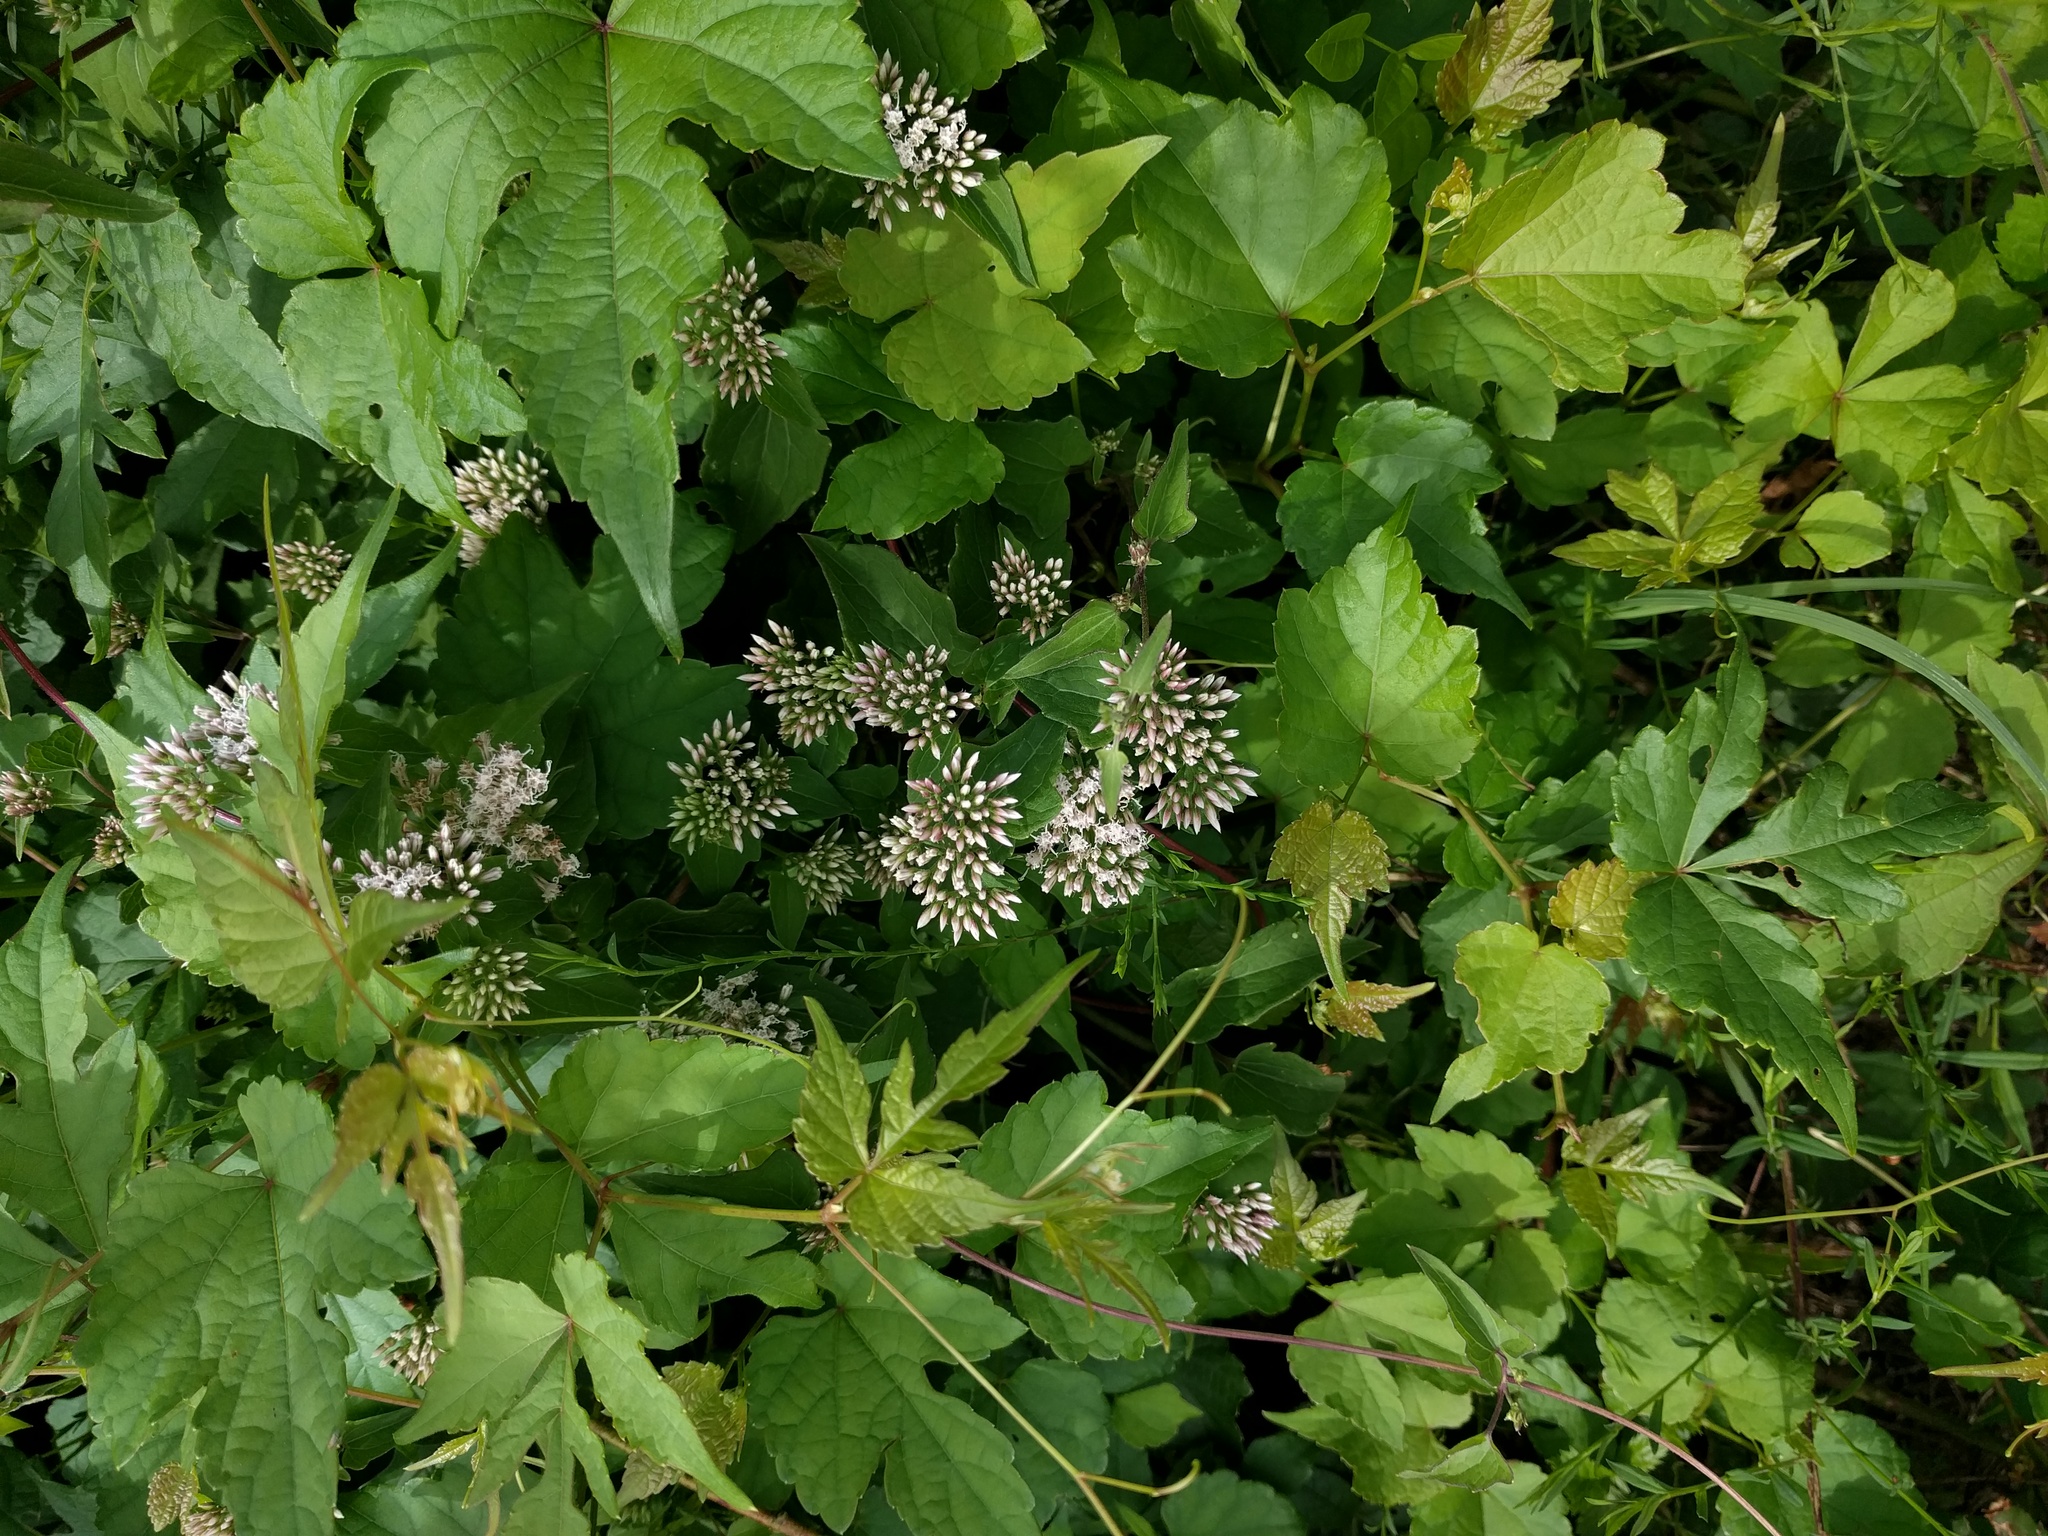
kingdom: Plantae
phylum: Tracheophyta
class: Magnoliopsida
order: Asterales
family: Asteraceae
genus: Mikania
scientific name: Mikania scandens
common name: Climbing hempvine
